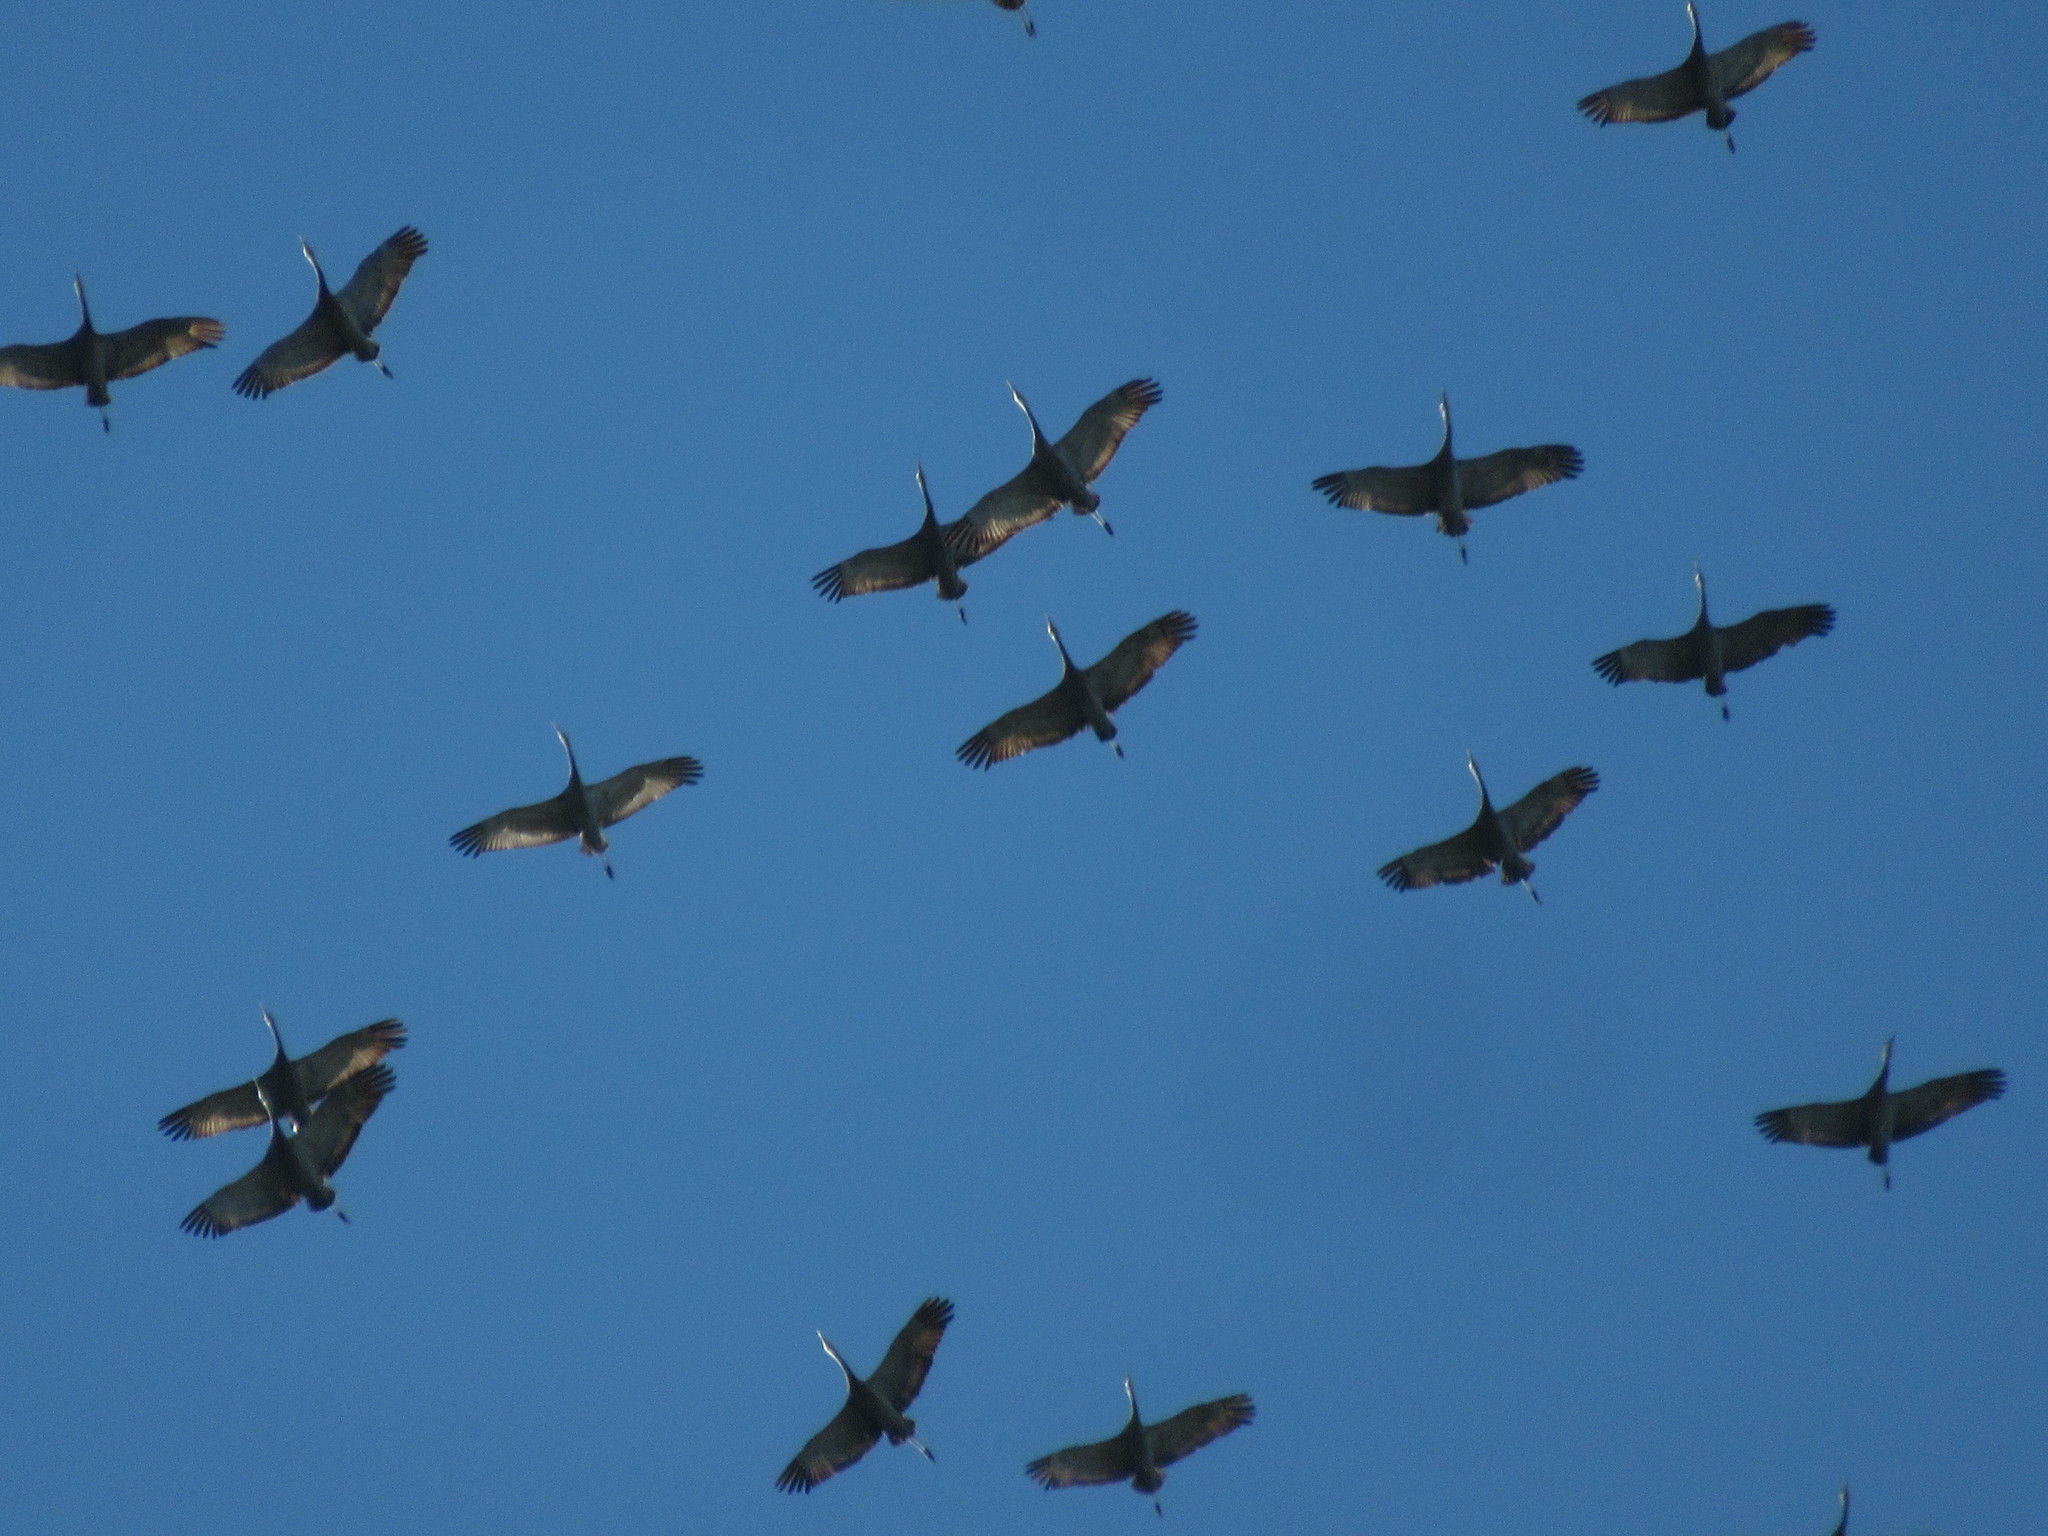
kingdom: Animalia
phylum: Chordata
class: Aves
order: Gruiformes
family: Gruidae
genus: Grus
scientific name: Grus canadensis
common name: Sandhill crane
